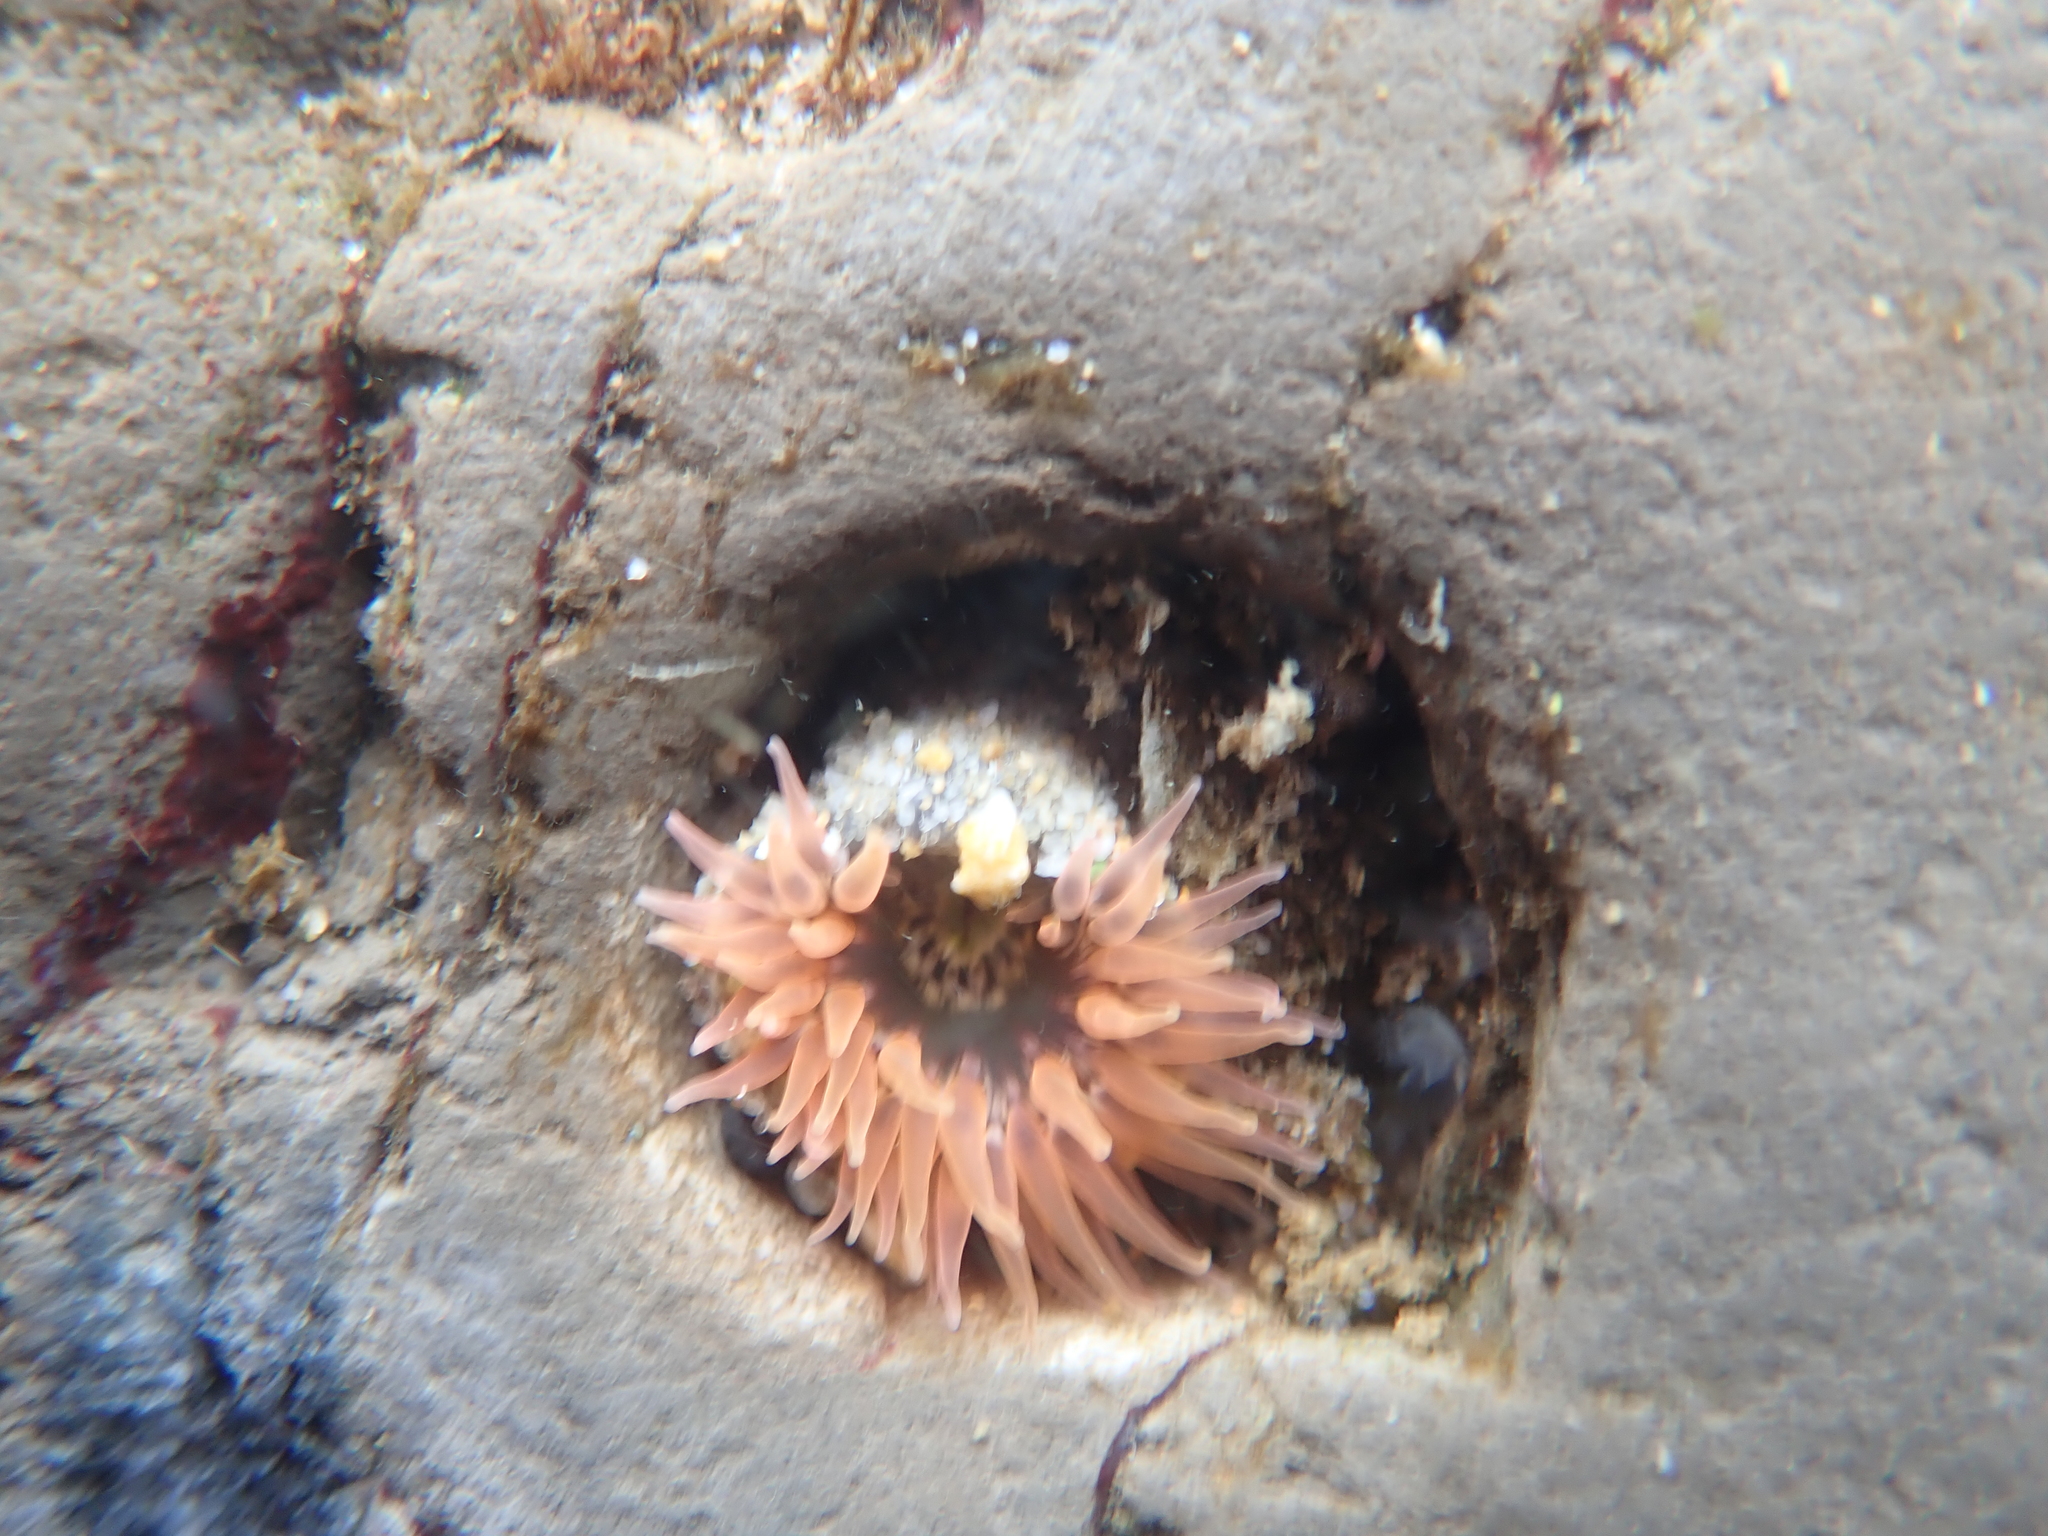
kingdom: Animalia
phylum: Cnidaria
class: Anthozoa
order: Actiniaria
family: Actiniidae
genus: Anthopleura
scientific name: Anthopleura artemisia
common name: Buried sea anemone
